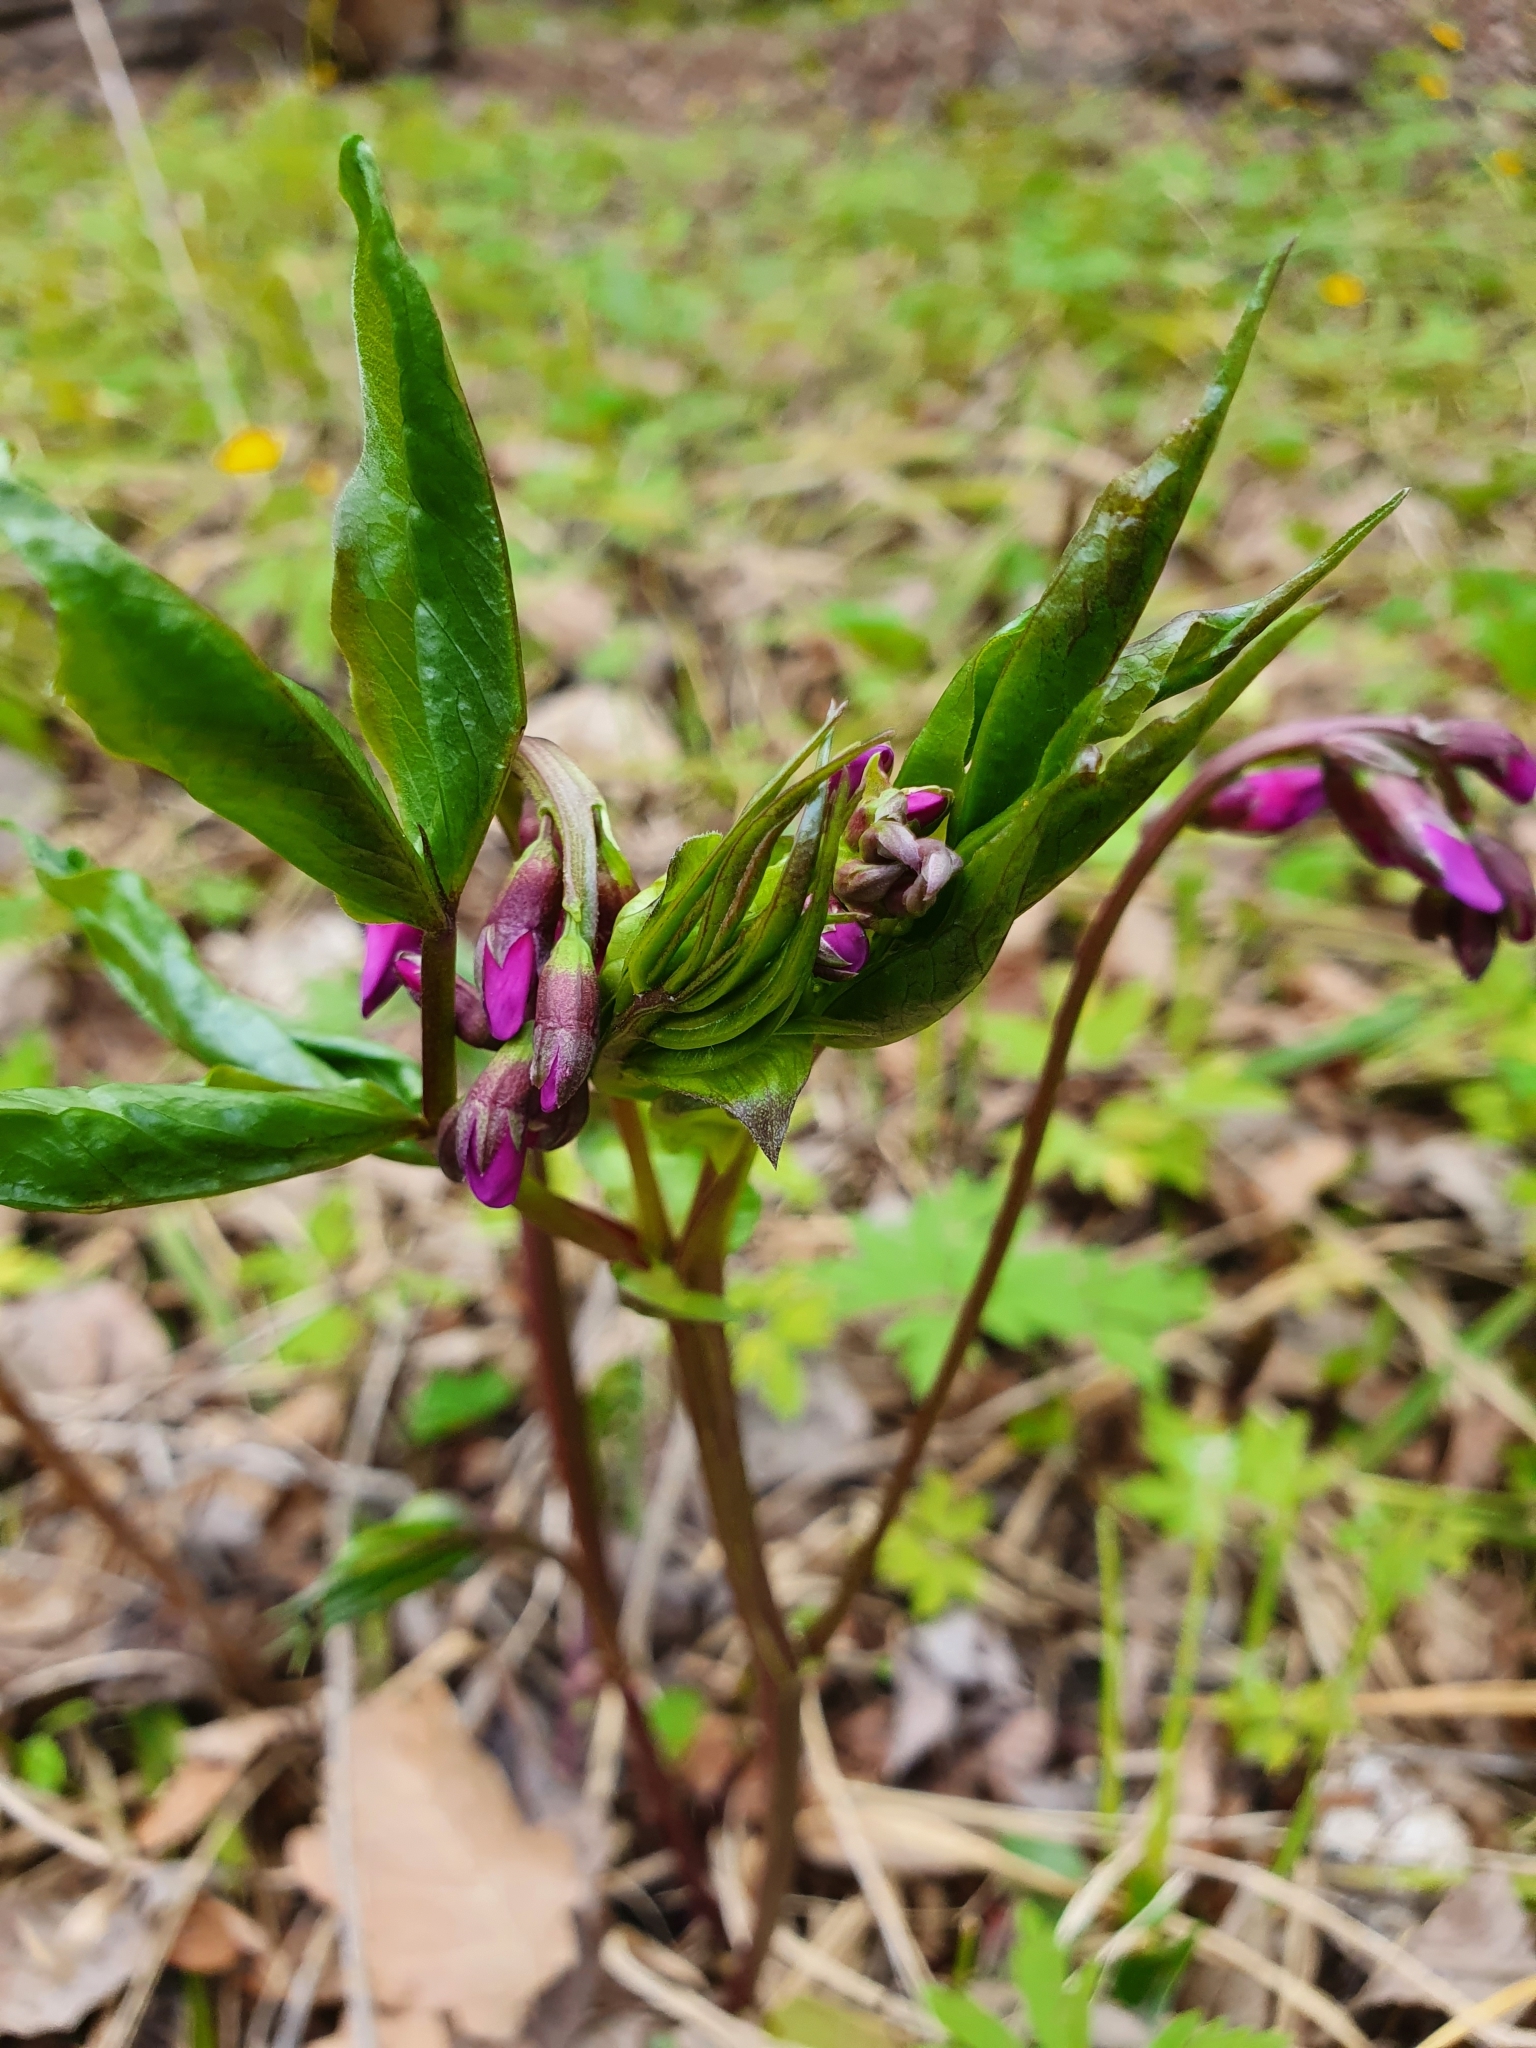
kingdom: Plantae
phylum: Tracheophyta
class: Magnoliopsida
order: Fabales
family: Fabaceae
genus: Lathyrus
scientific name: Lathyrus vernus
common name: Spring pea
